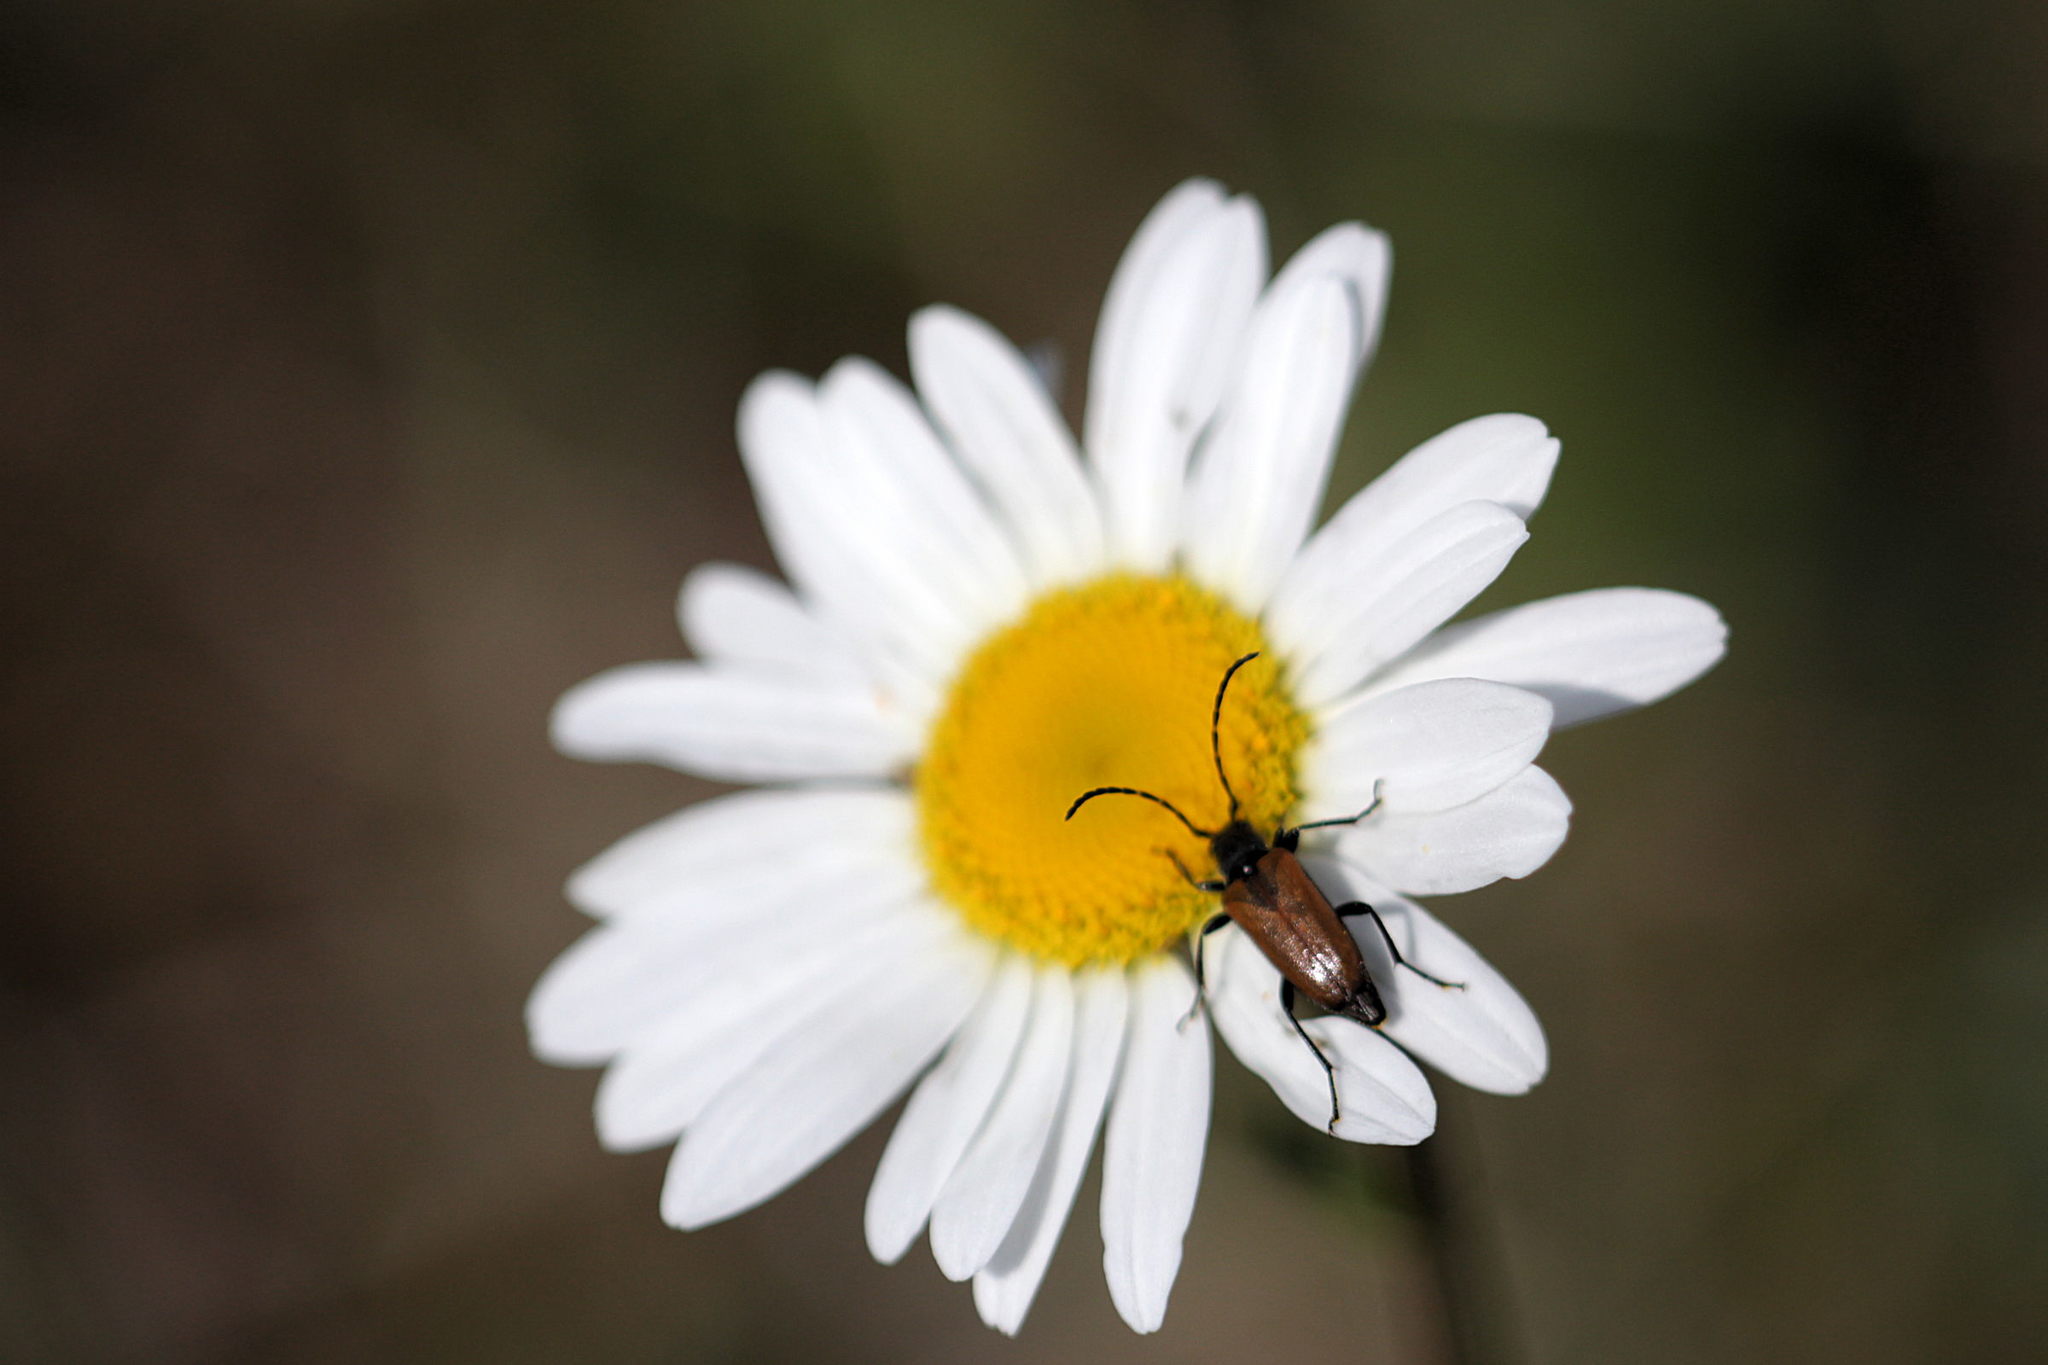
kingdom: Animalia
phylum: Arthropoda
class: Insecta
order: Coleoptera
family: Cerambycidae
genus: Paracorymbia
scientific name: Paracorymbia maculicornis
